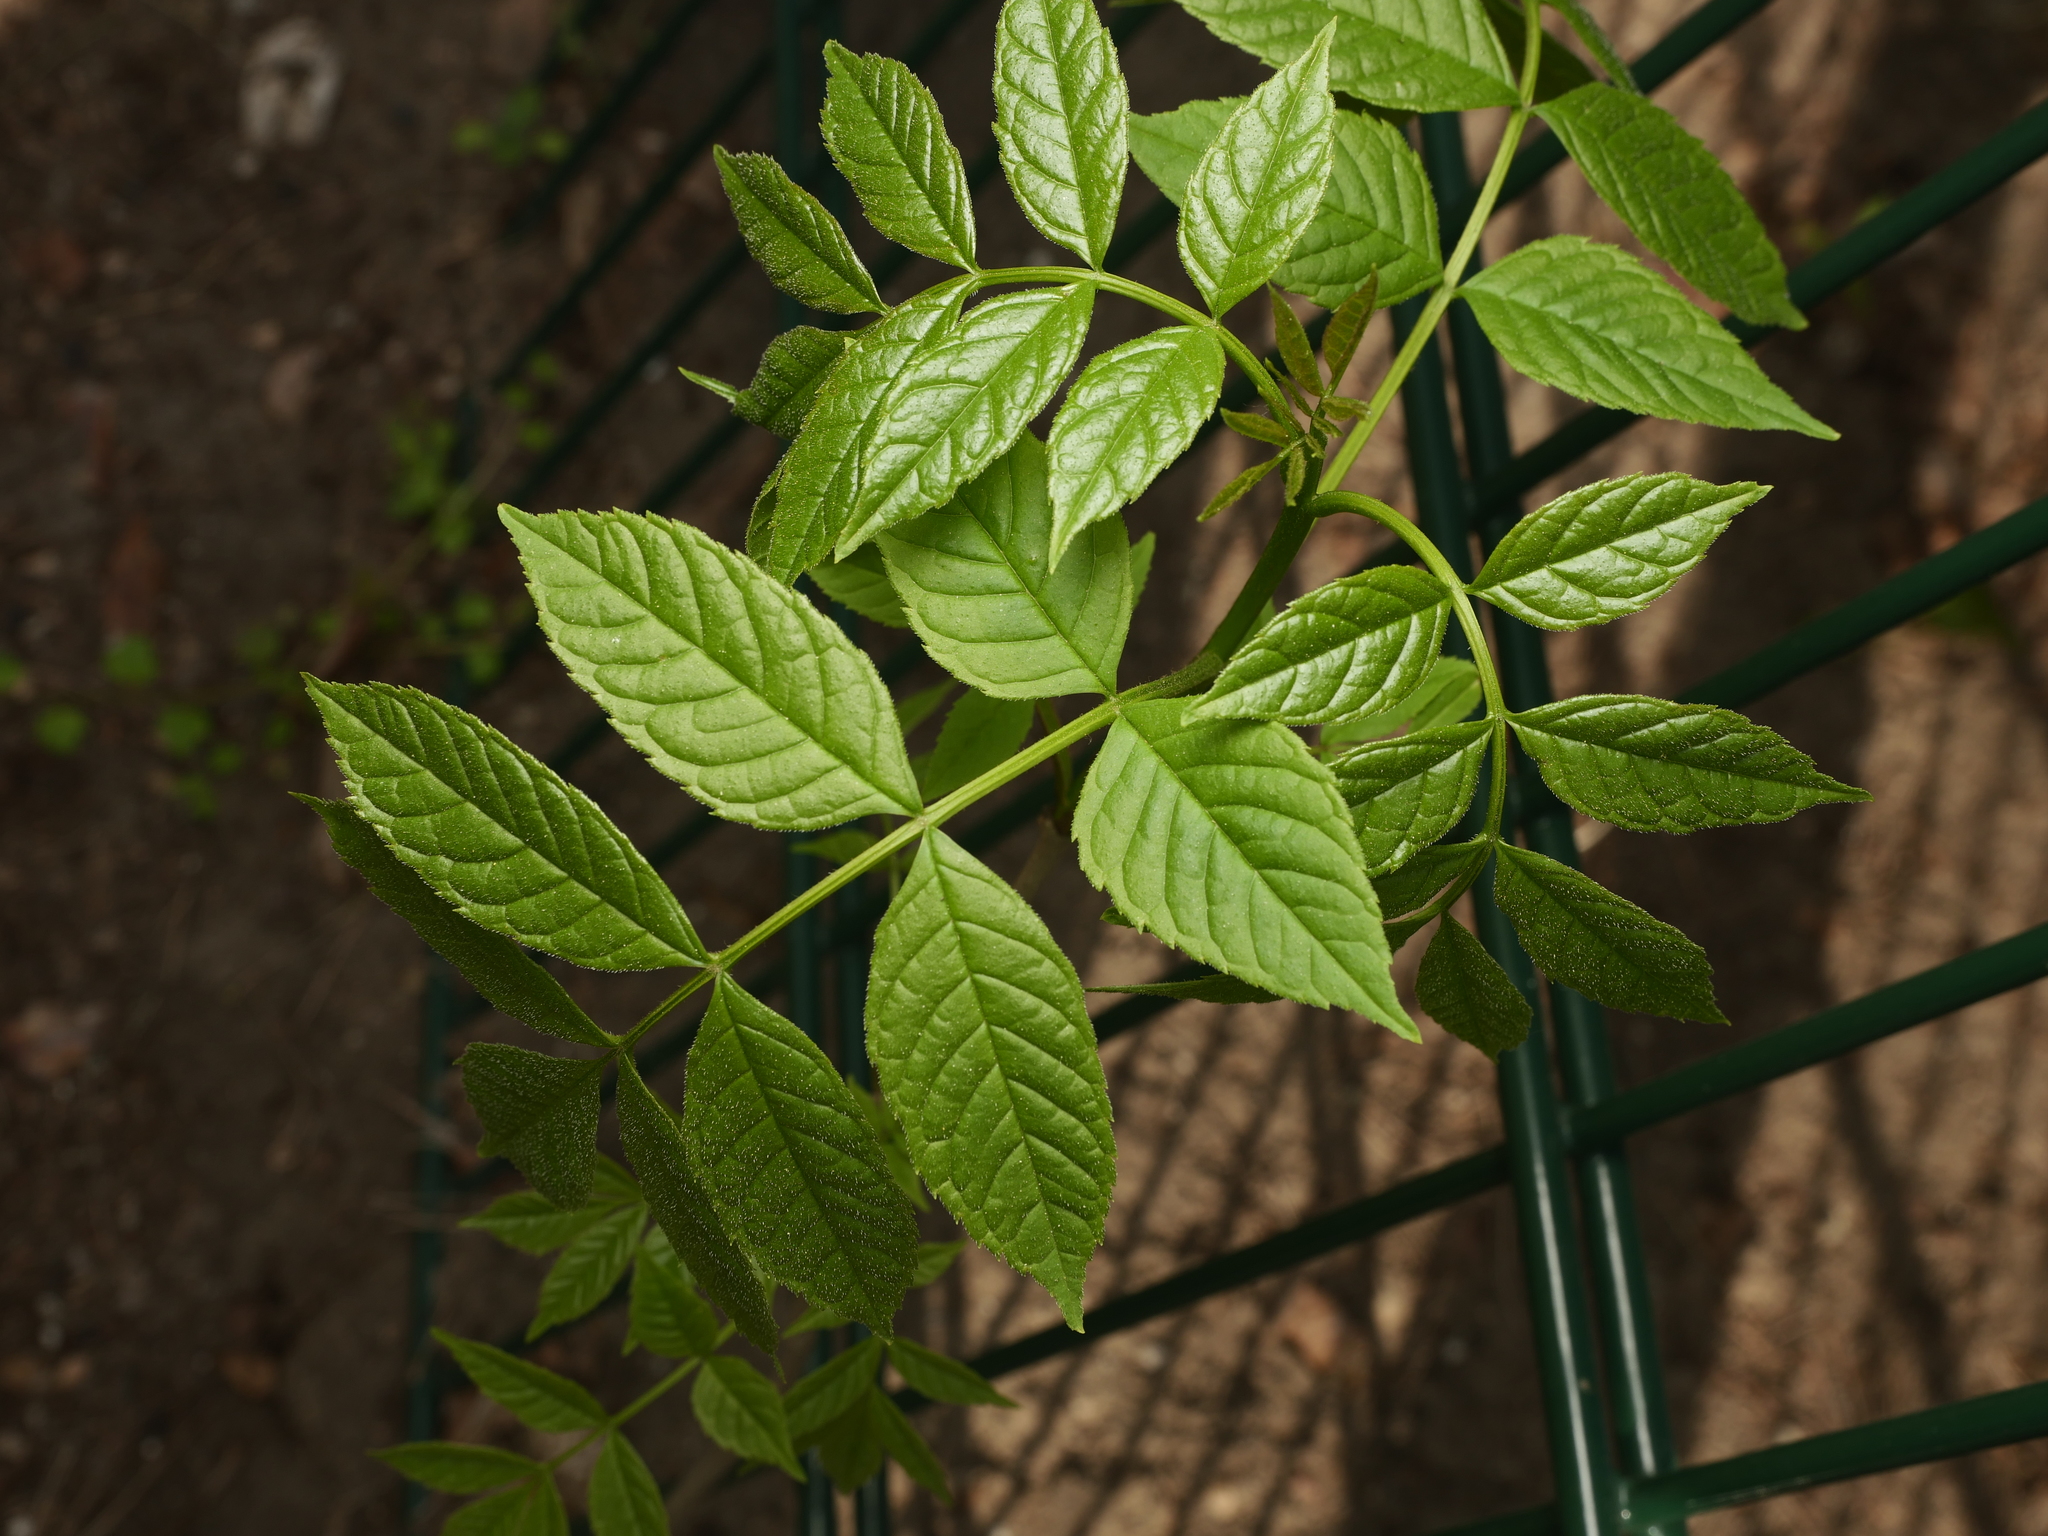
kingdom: Plantae
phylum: Tracheophyta
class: Magnoliopsida
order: Lamiales
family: Oleaceae
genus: Fraxinus
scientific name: Fraxinus excelsior
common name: European ash
